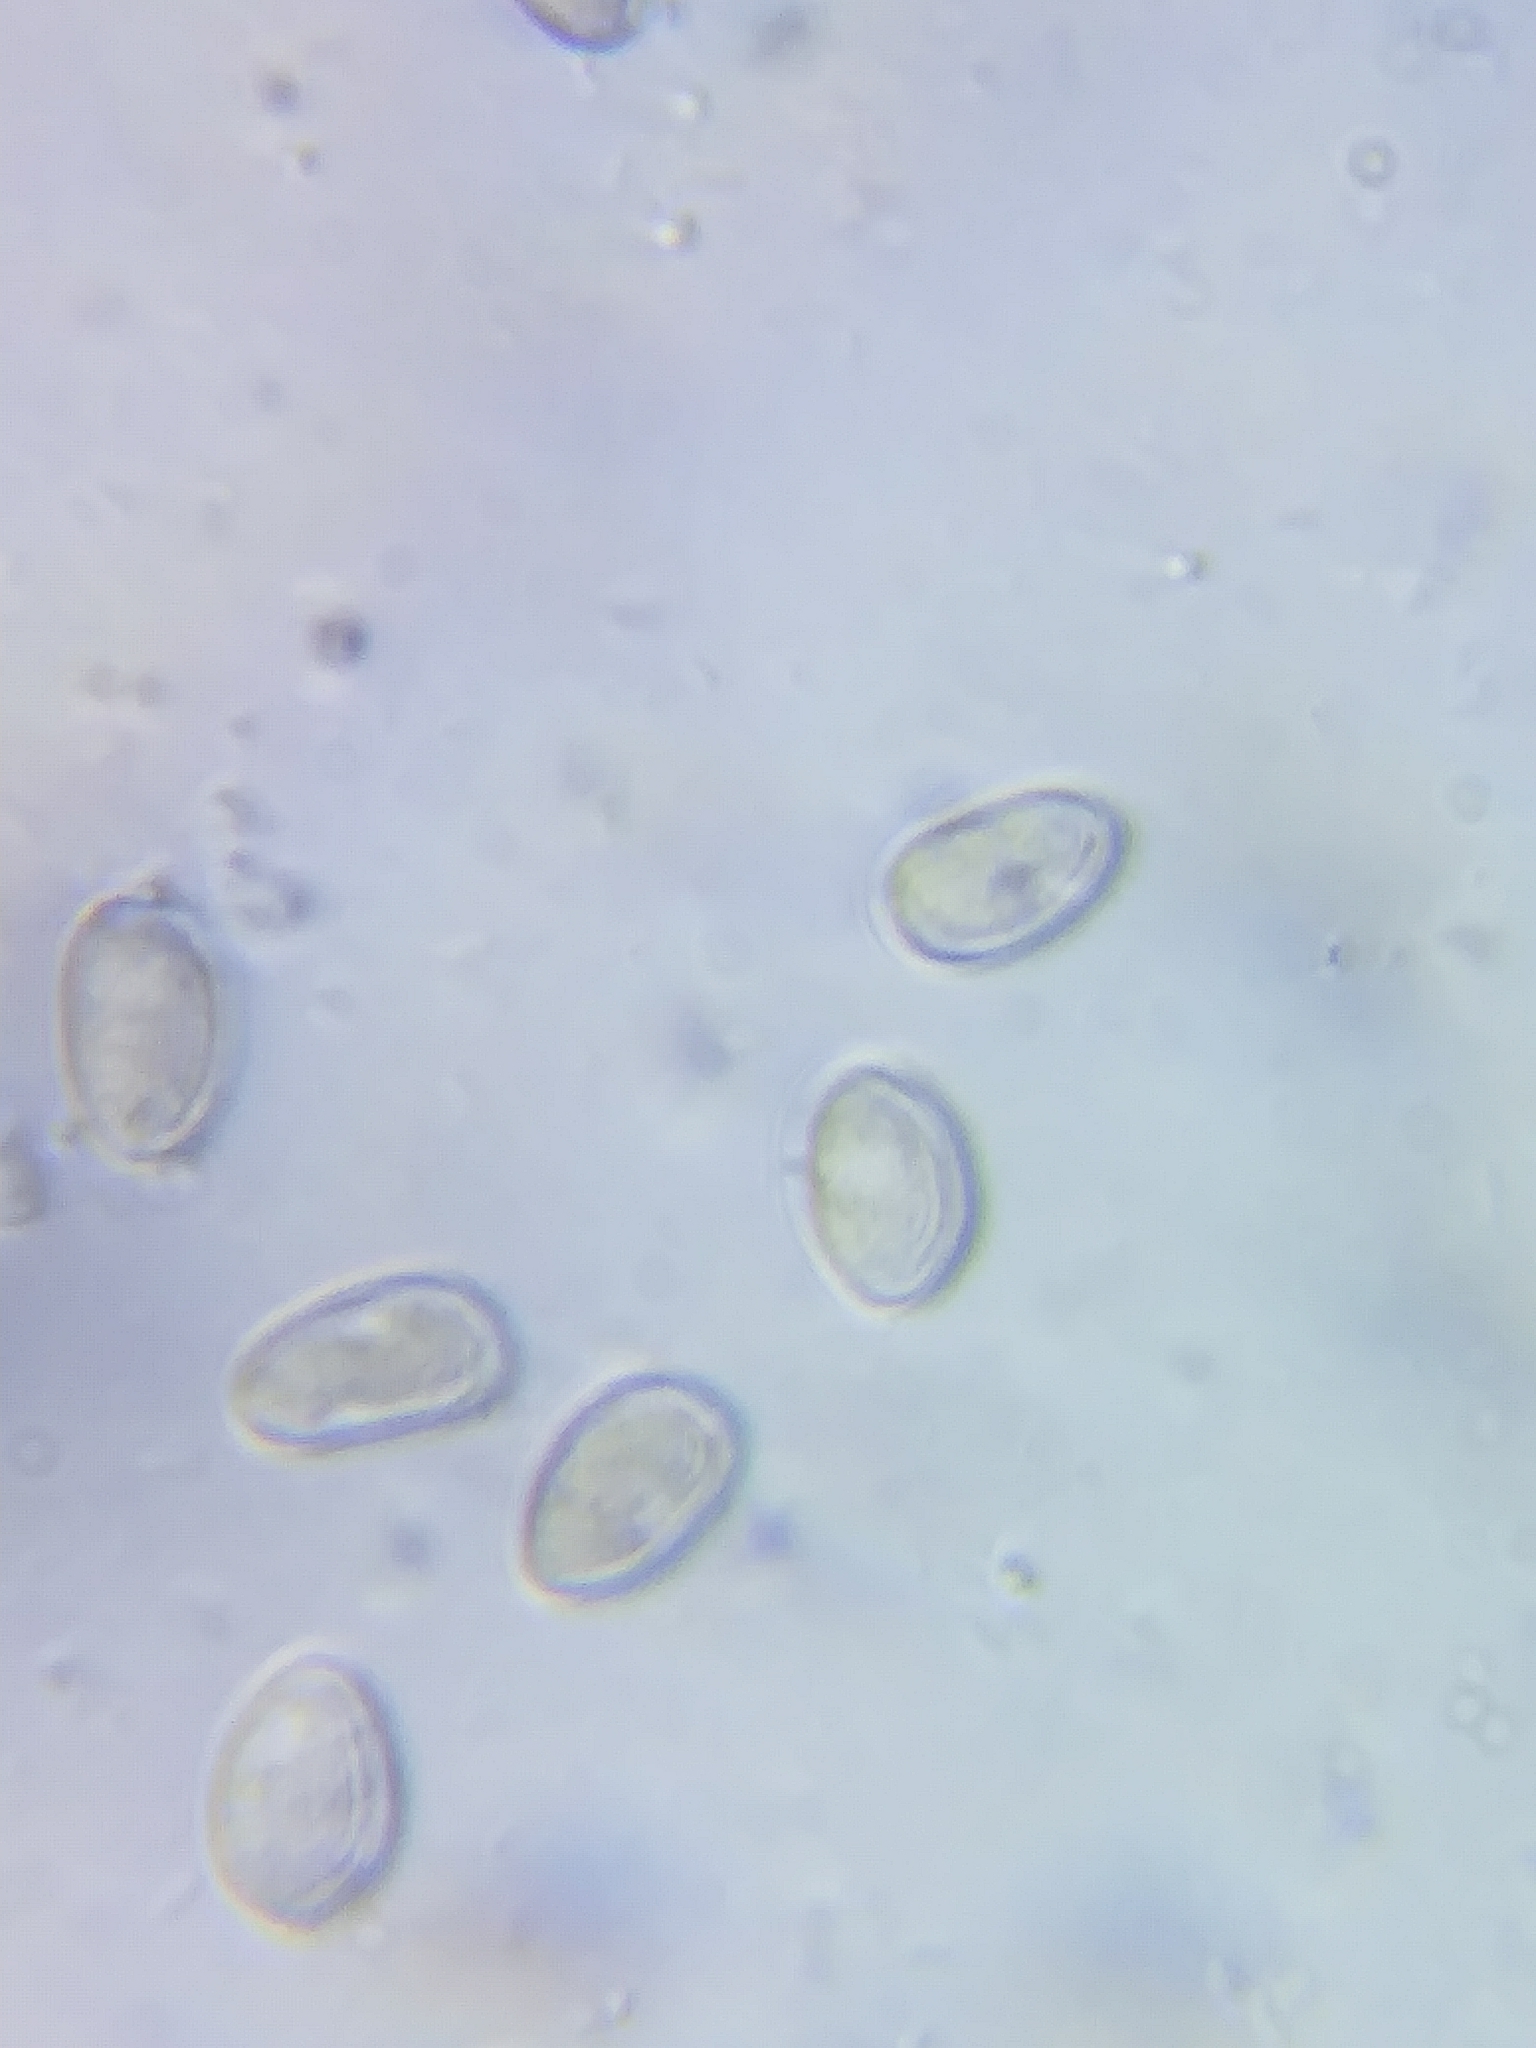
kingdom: Fungi
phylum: Basidiomycota
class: Agaricomycetes
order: Agaricales
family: Inocybaceae
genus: Mallocybe
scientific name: Mallocybe
